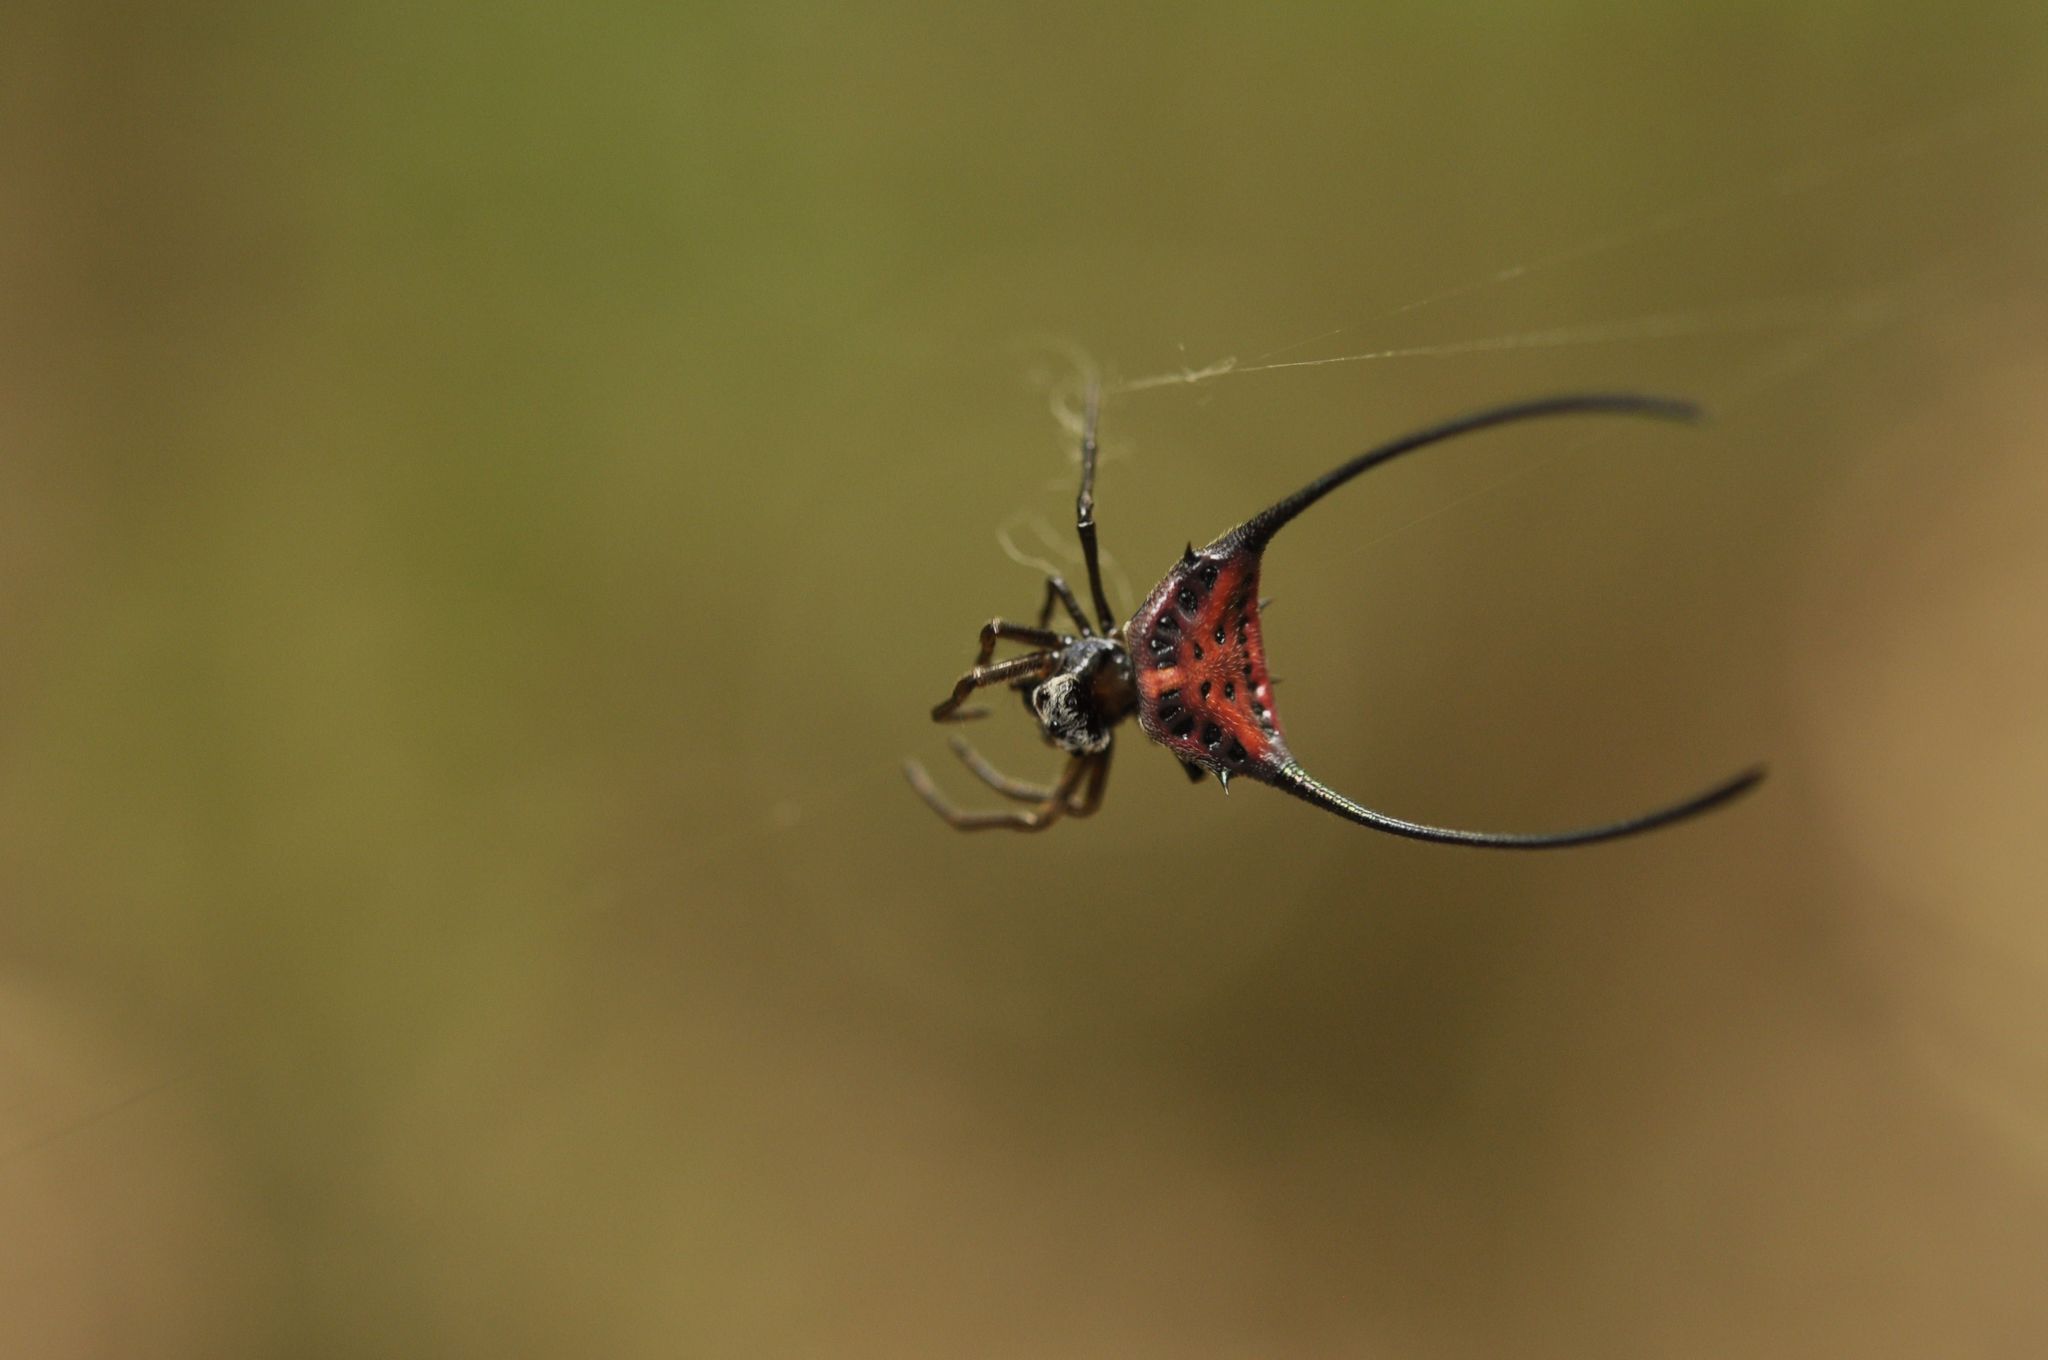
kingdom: Animalia
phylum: Arthropoda
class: Arachnida
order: Araneae
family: Araneidae
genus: Macracantha
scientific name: Macracantha arcuata
